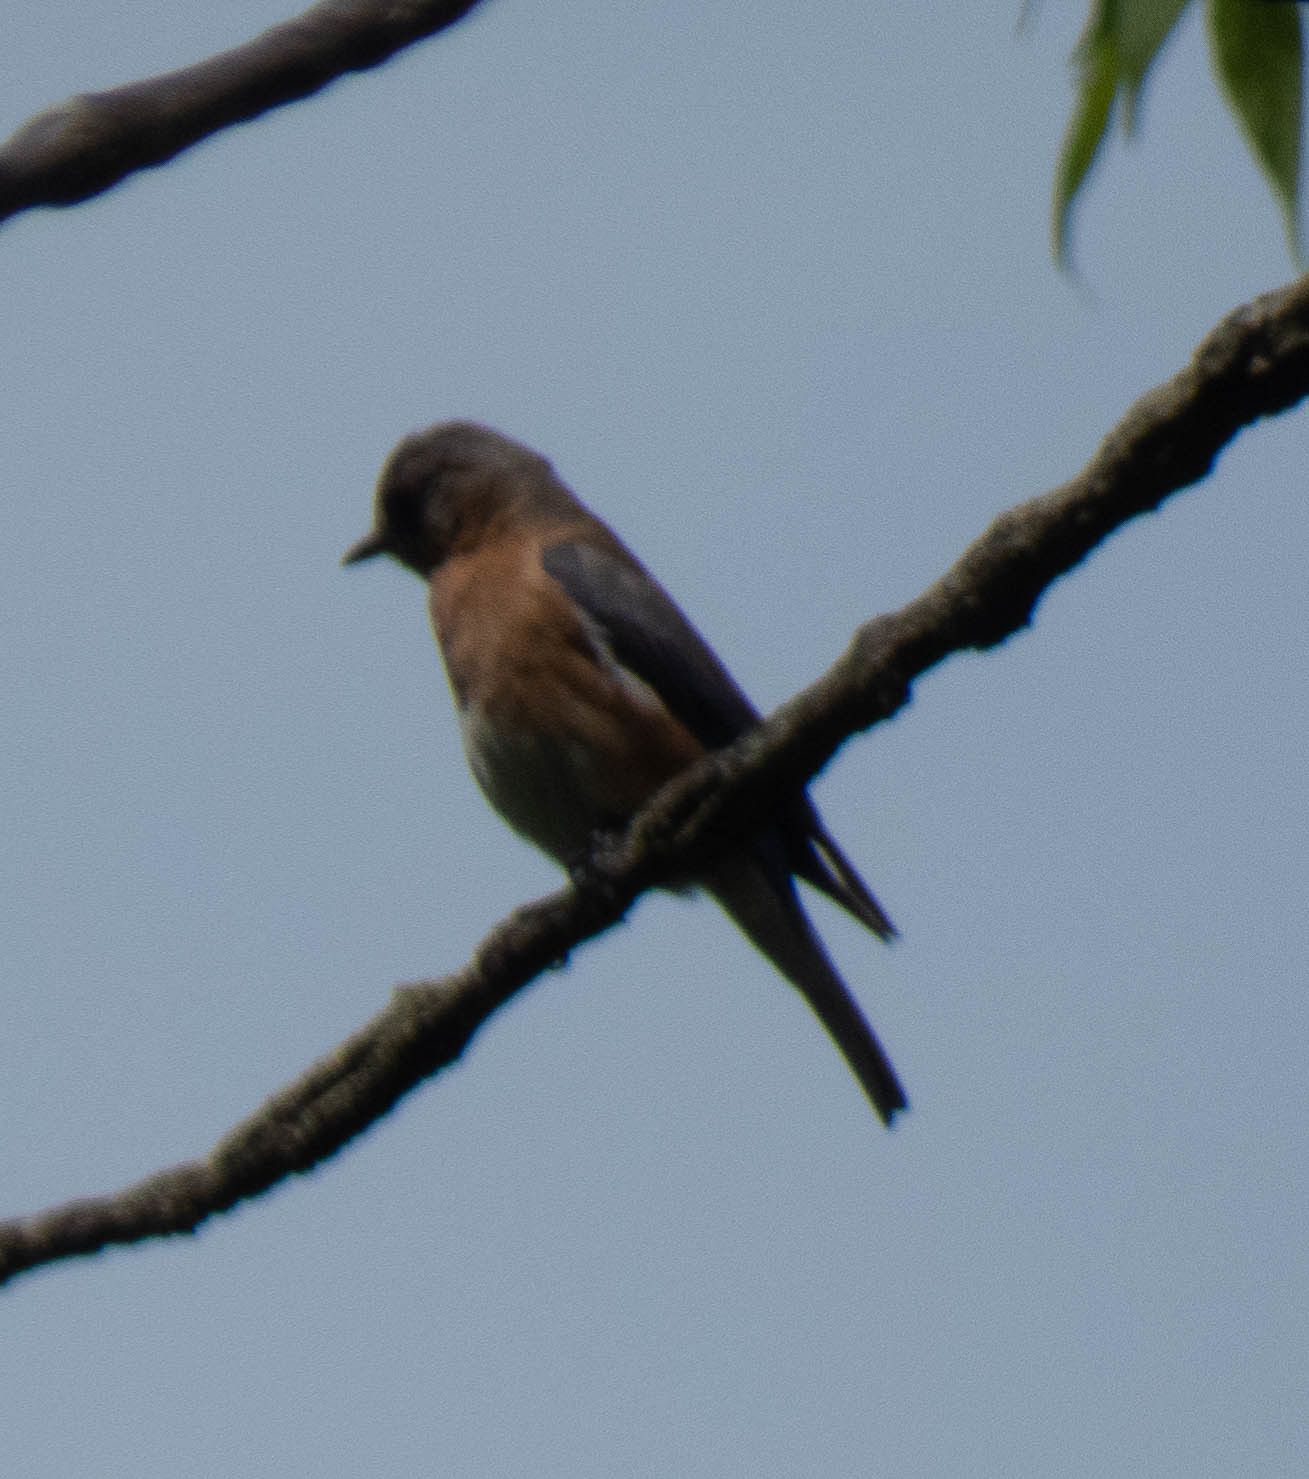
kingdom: Animalia
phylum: Chordata
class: Aves
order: Passeriformes
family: Turdidae
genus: Sialia
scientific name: Sialia sialis
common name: Eastern bluebird
